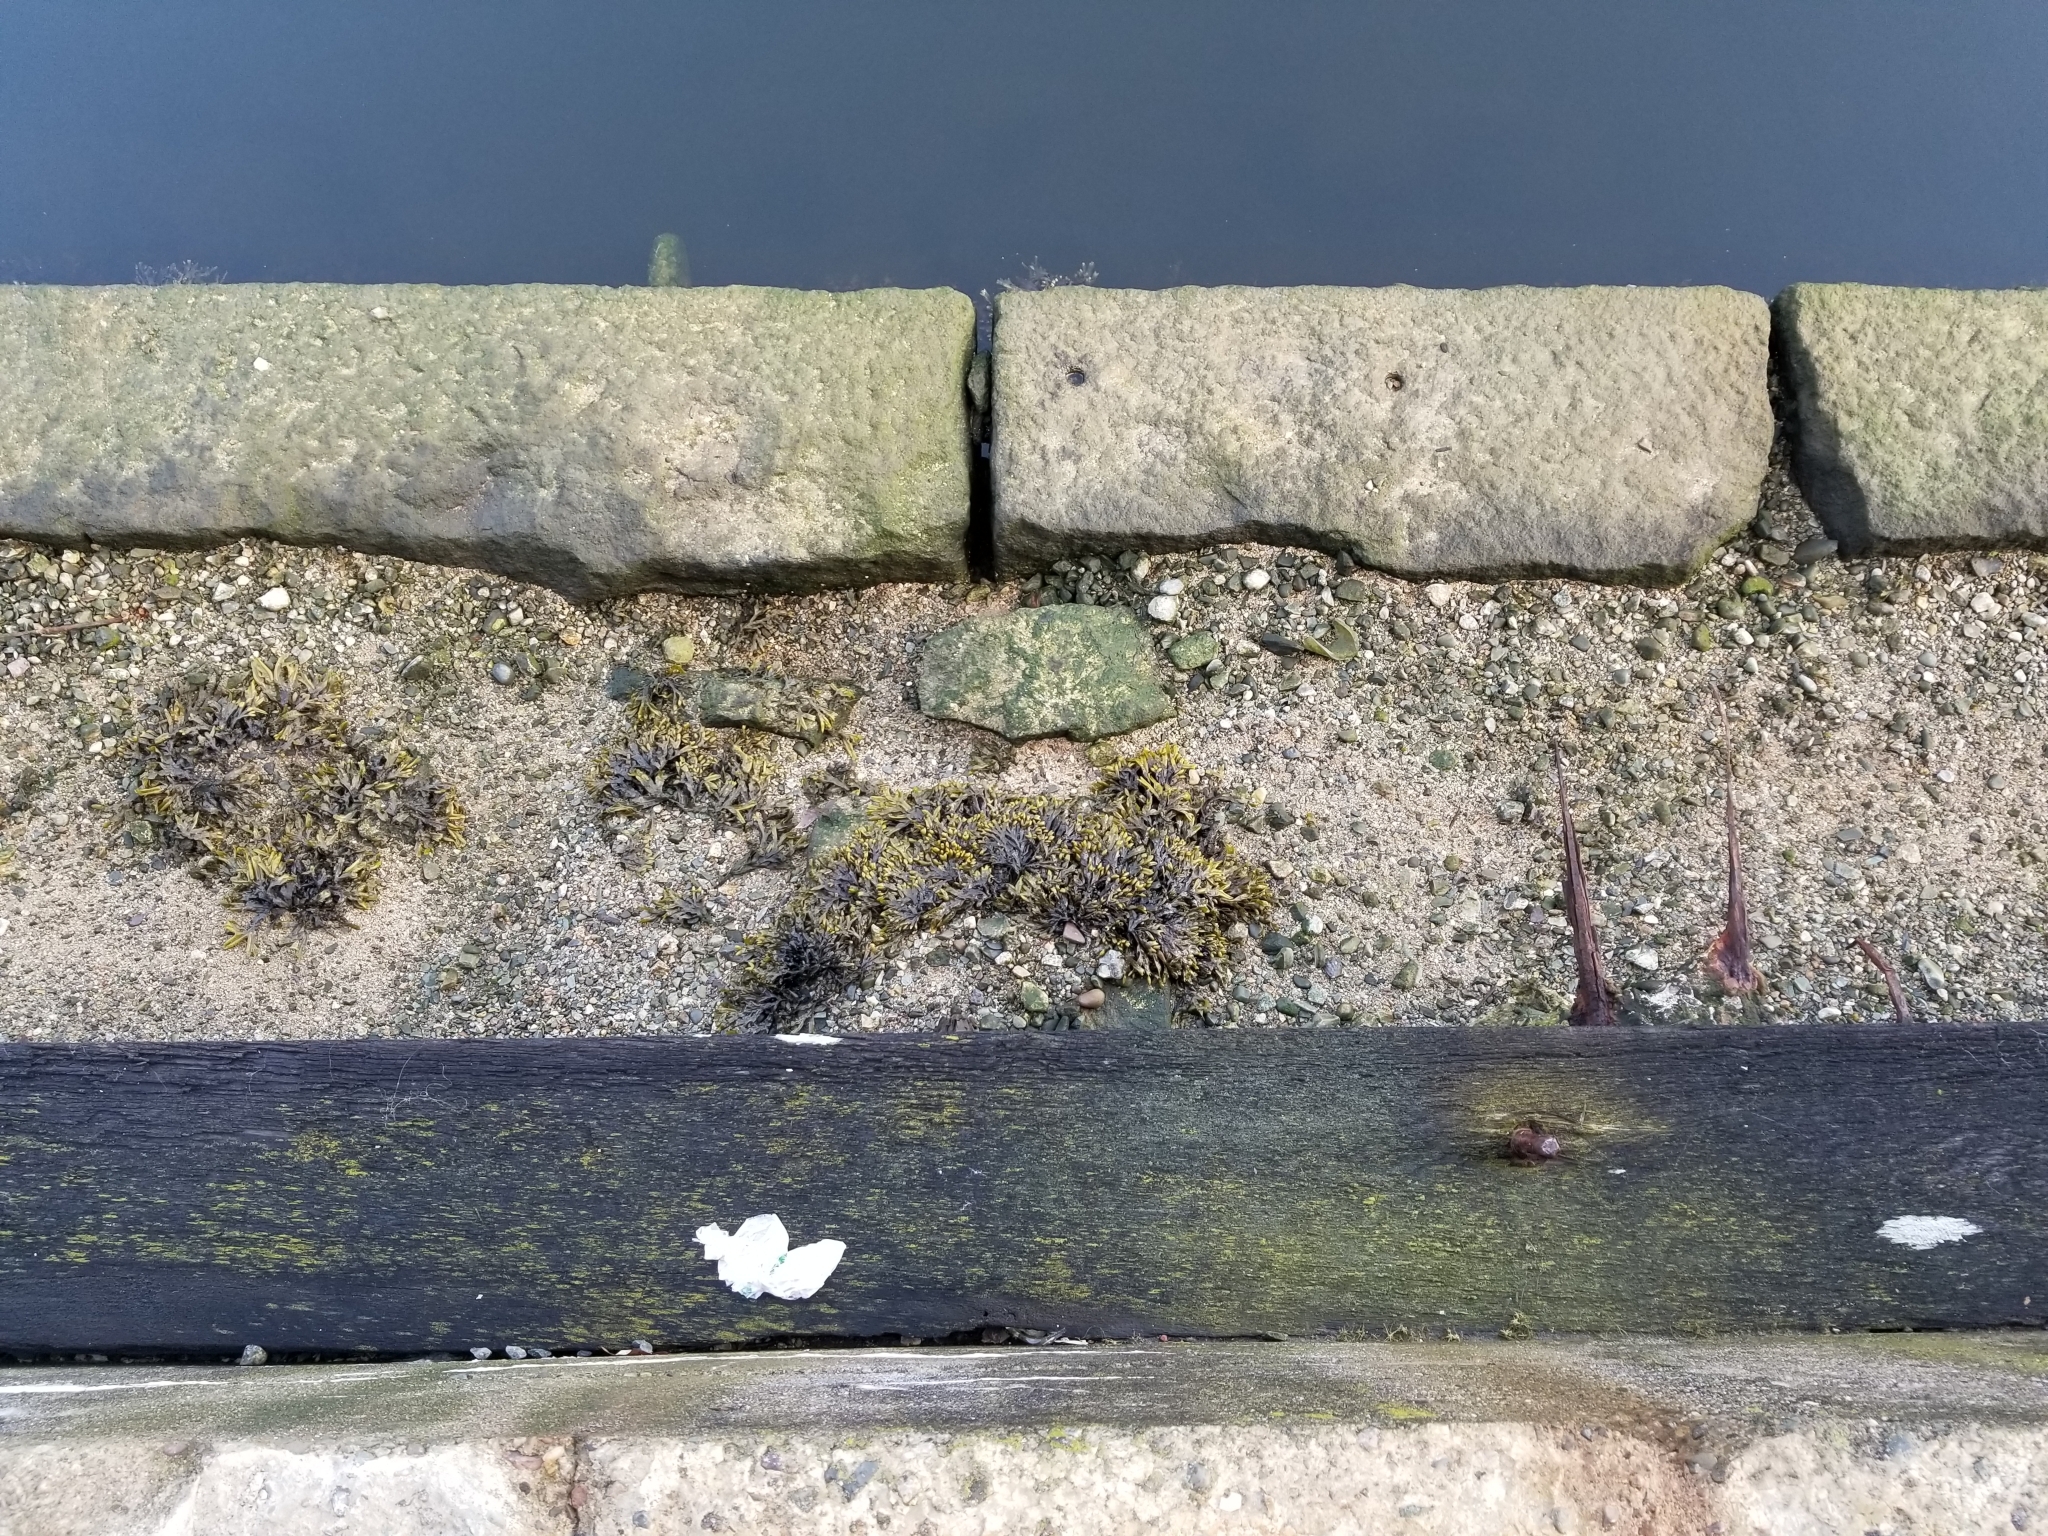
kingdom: Chromista
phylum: Ochrophyta
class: Phaeophyceae
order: Fucales
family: Fucaceae
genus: Fucus
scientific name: Fucus distichus
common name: Rockweed
